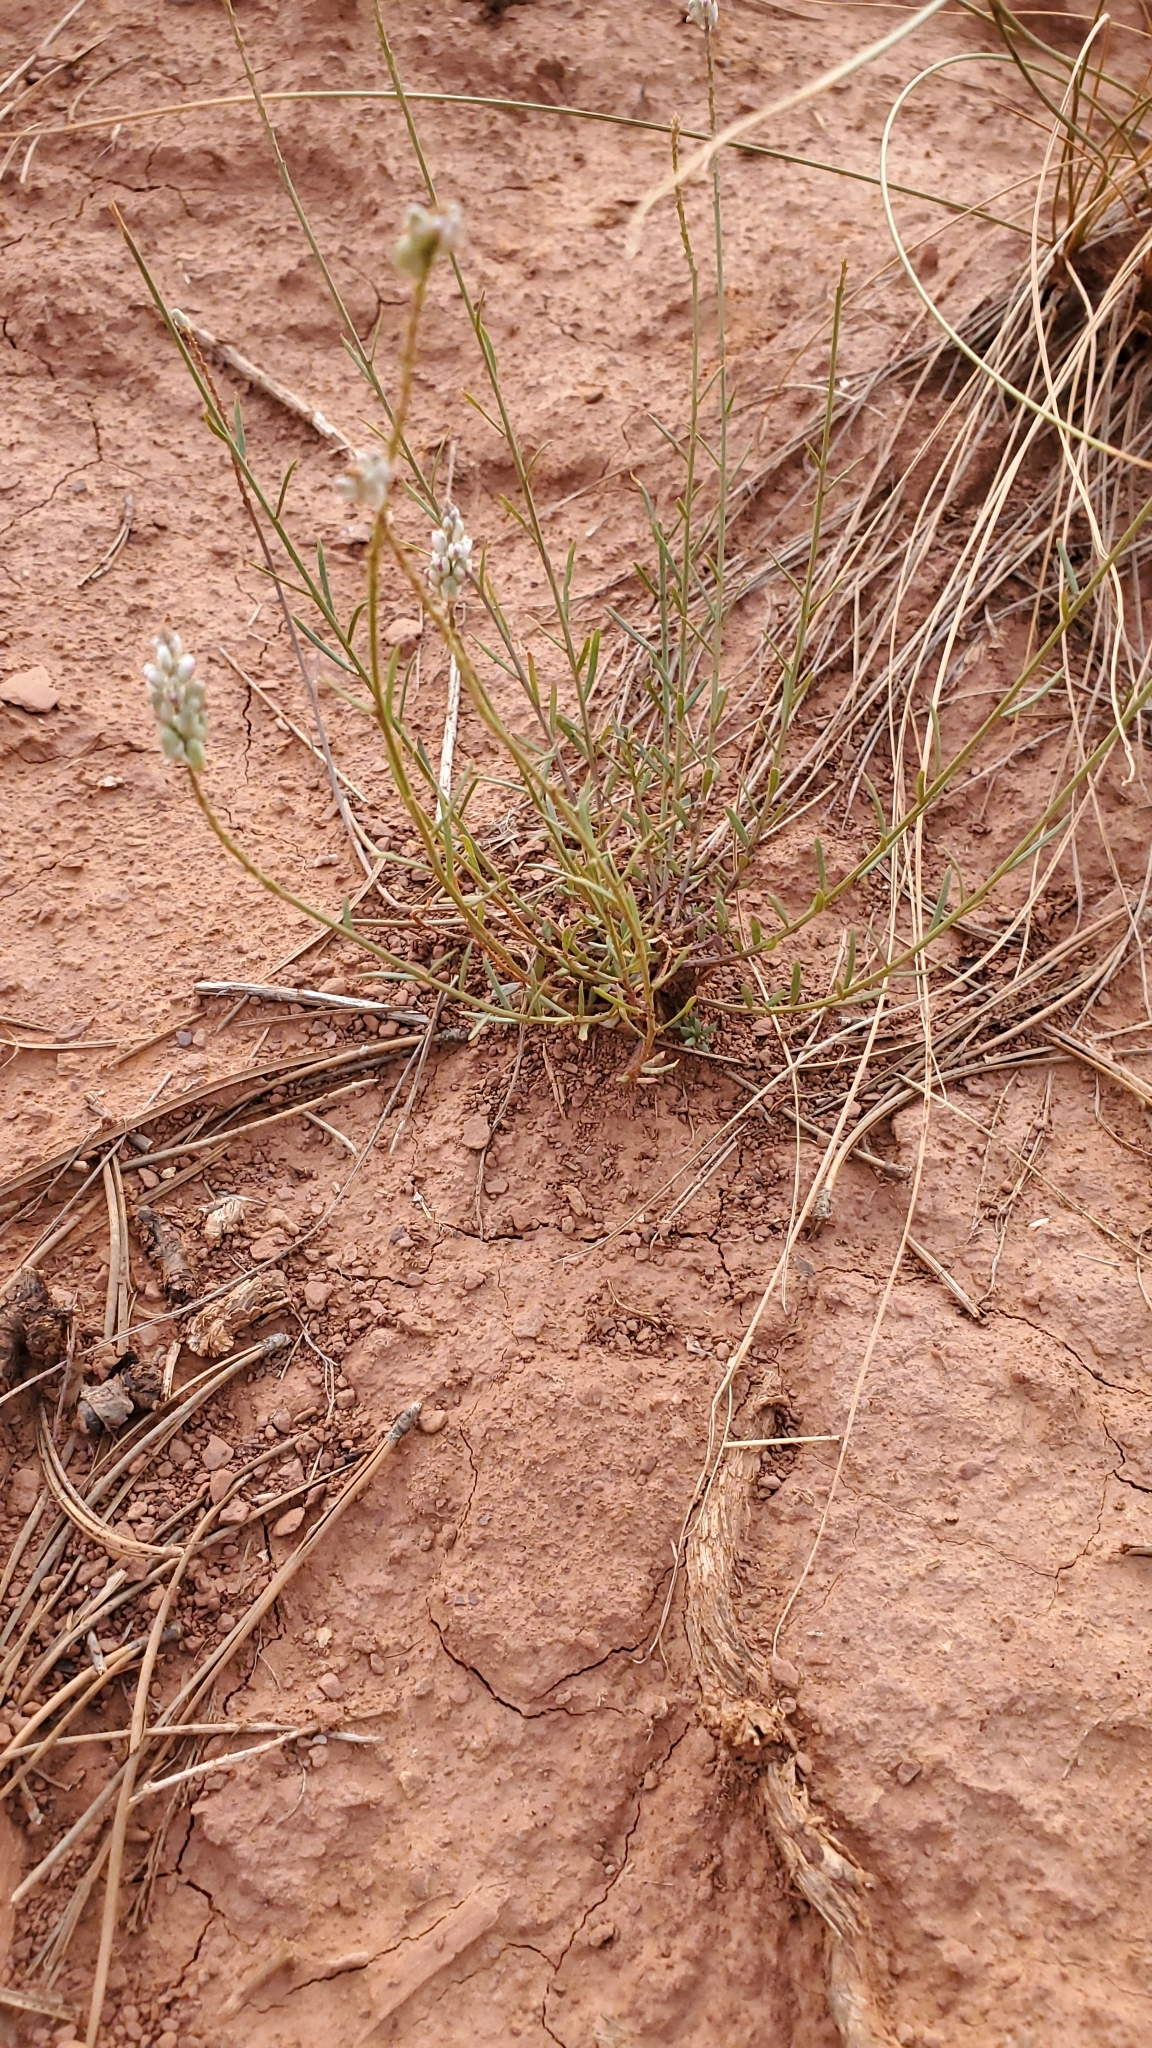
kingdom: Plantae
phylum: Tracheophyta
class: Magnoliopsida
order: Fabales
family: Polygalaceae
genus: Polygala
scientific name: Polygala alba
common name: White milkwort
